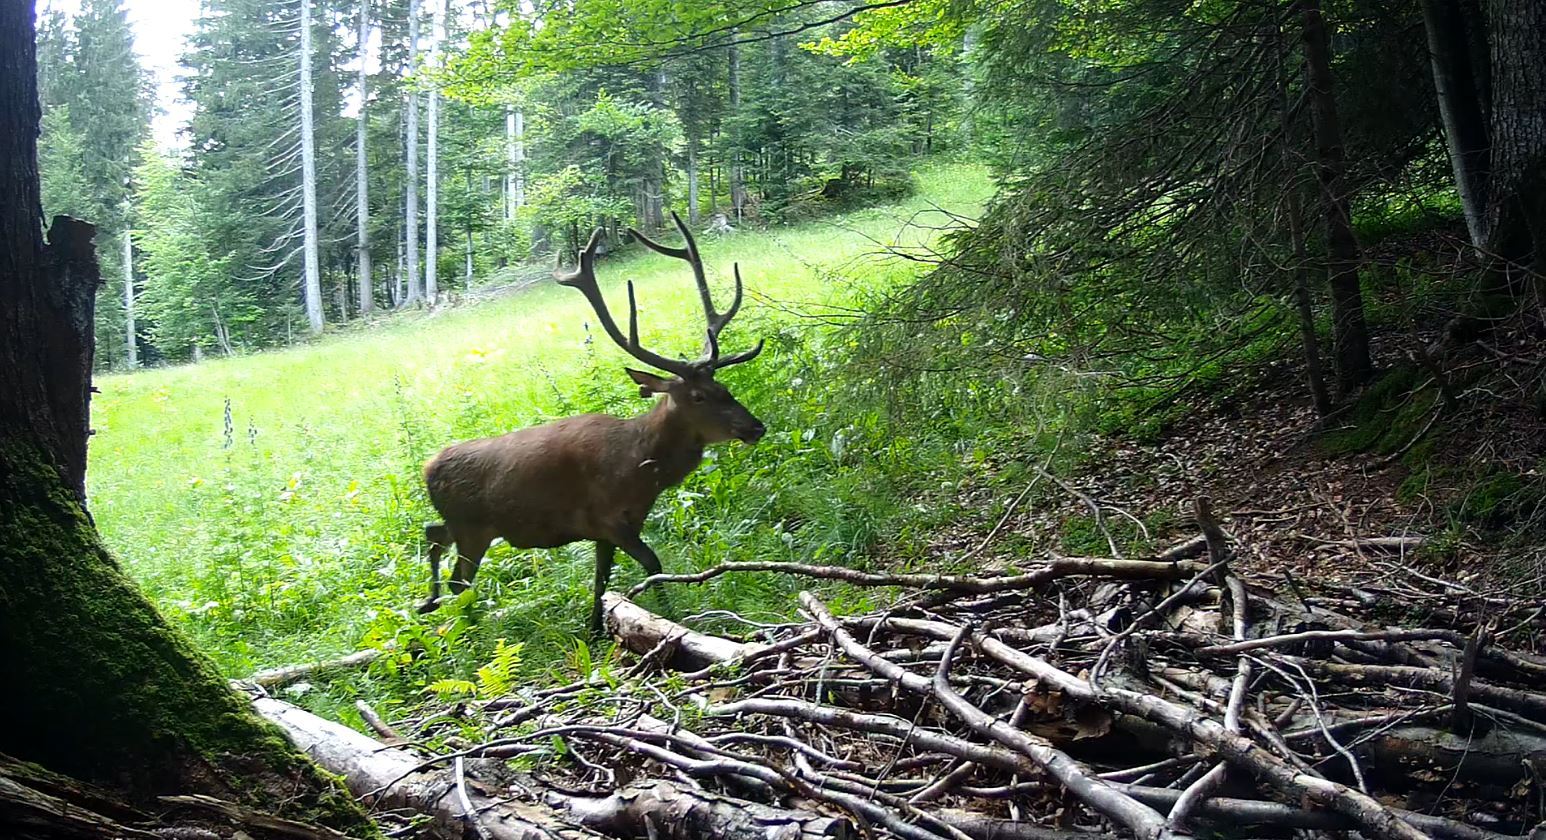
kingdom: Animalia
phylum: Chordata
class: Mammalia
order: Artiodactyla
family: Cervidae
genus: Cervus
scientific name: Cervus elaphus
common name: Red deer
